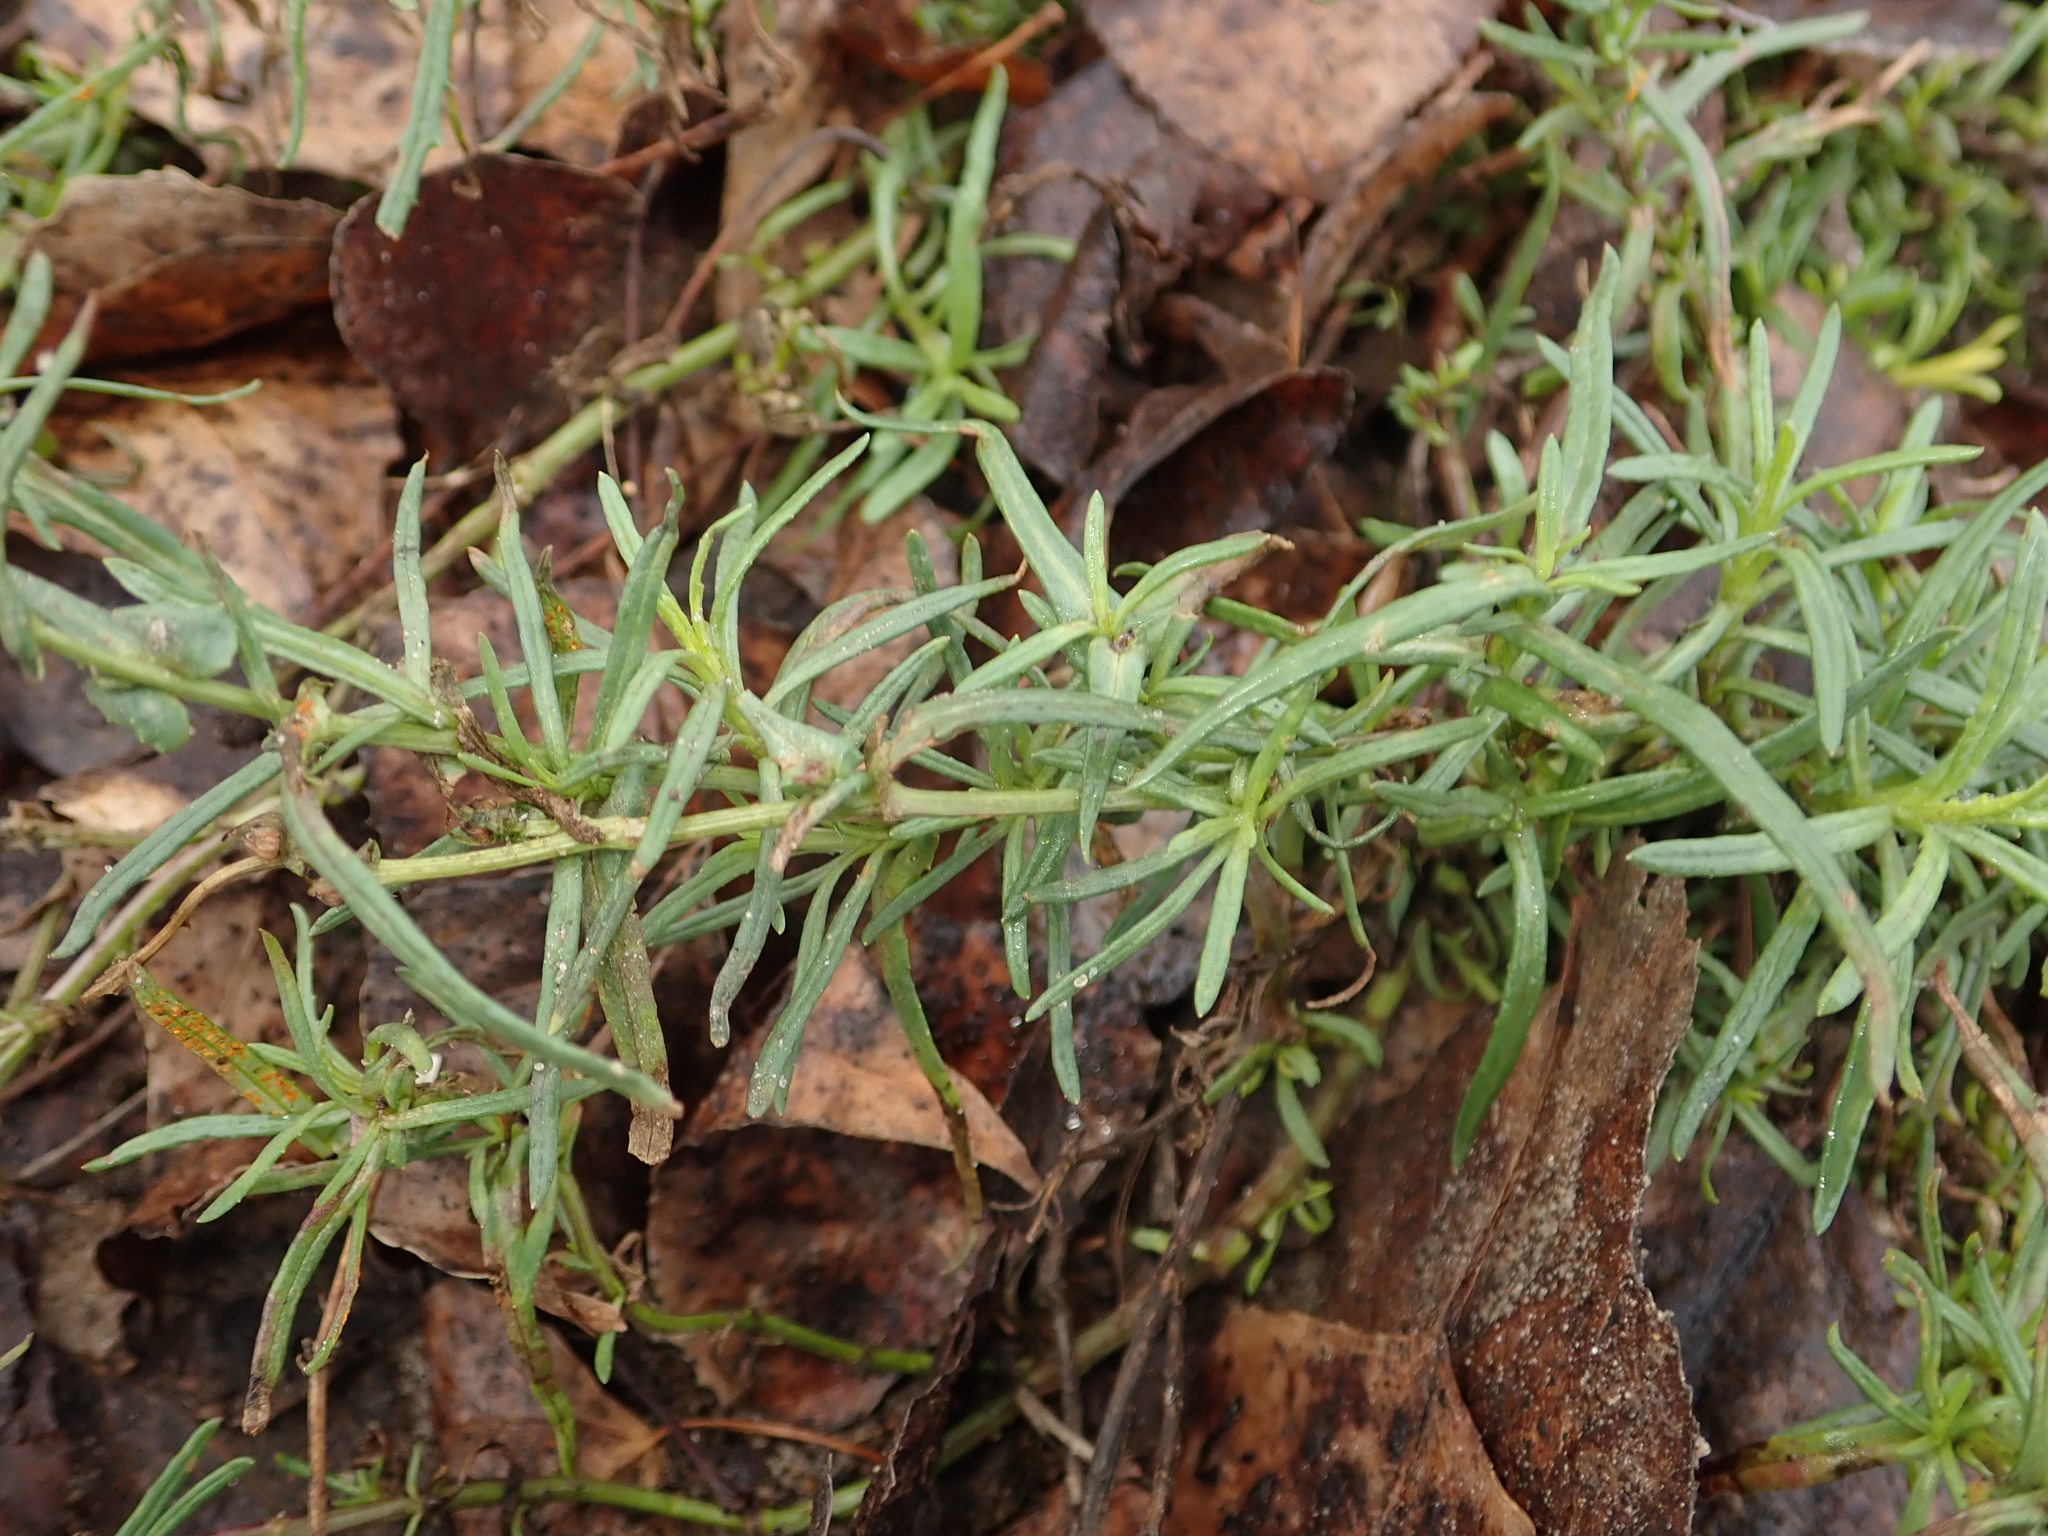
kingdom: Plantae
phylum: Tracheophyta
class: Magnoliopsida
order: Asterales
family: Asteraceae
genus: Senecio
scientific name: Senecio inaequidens
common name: Narrow-leaved ragwort
